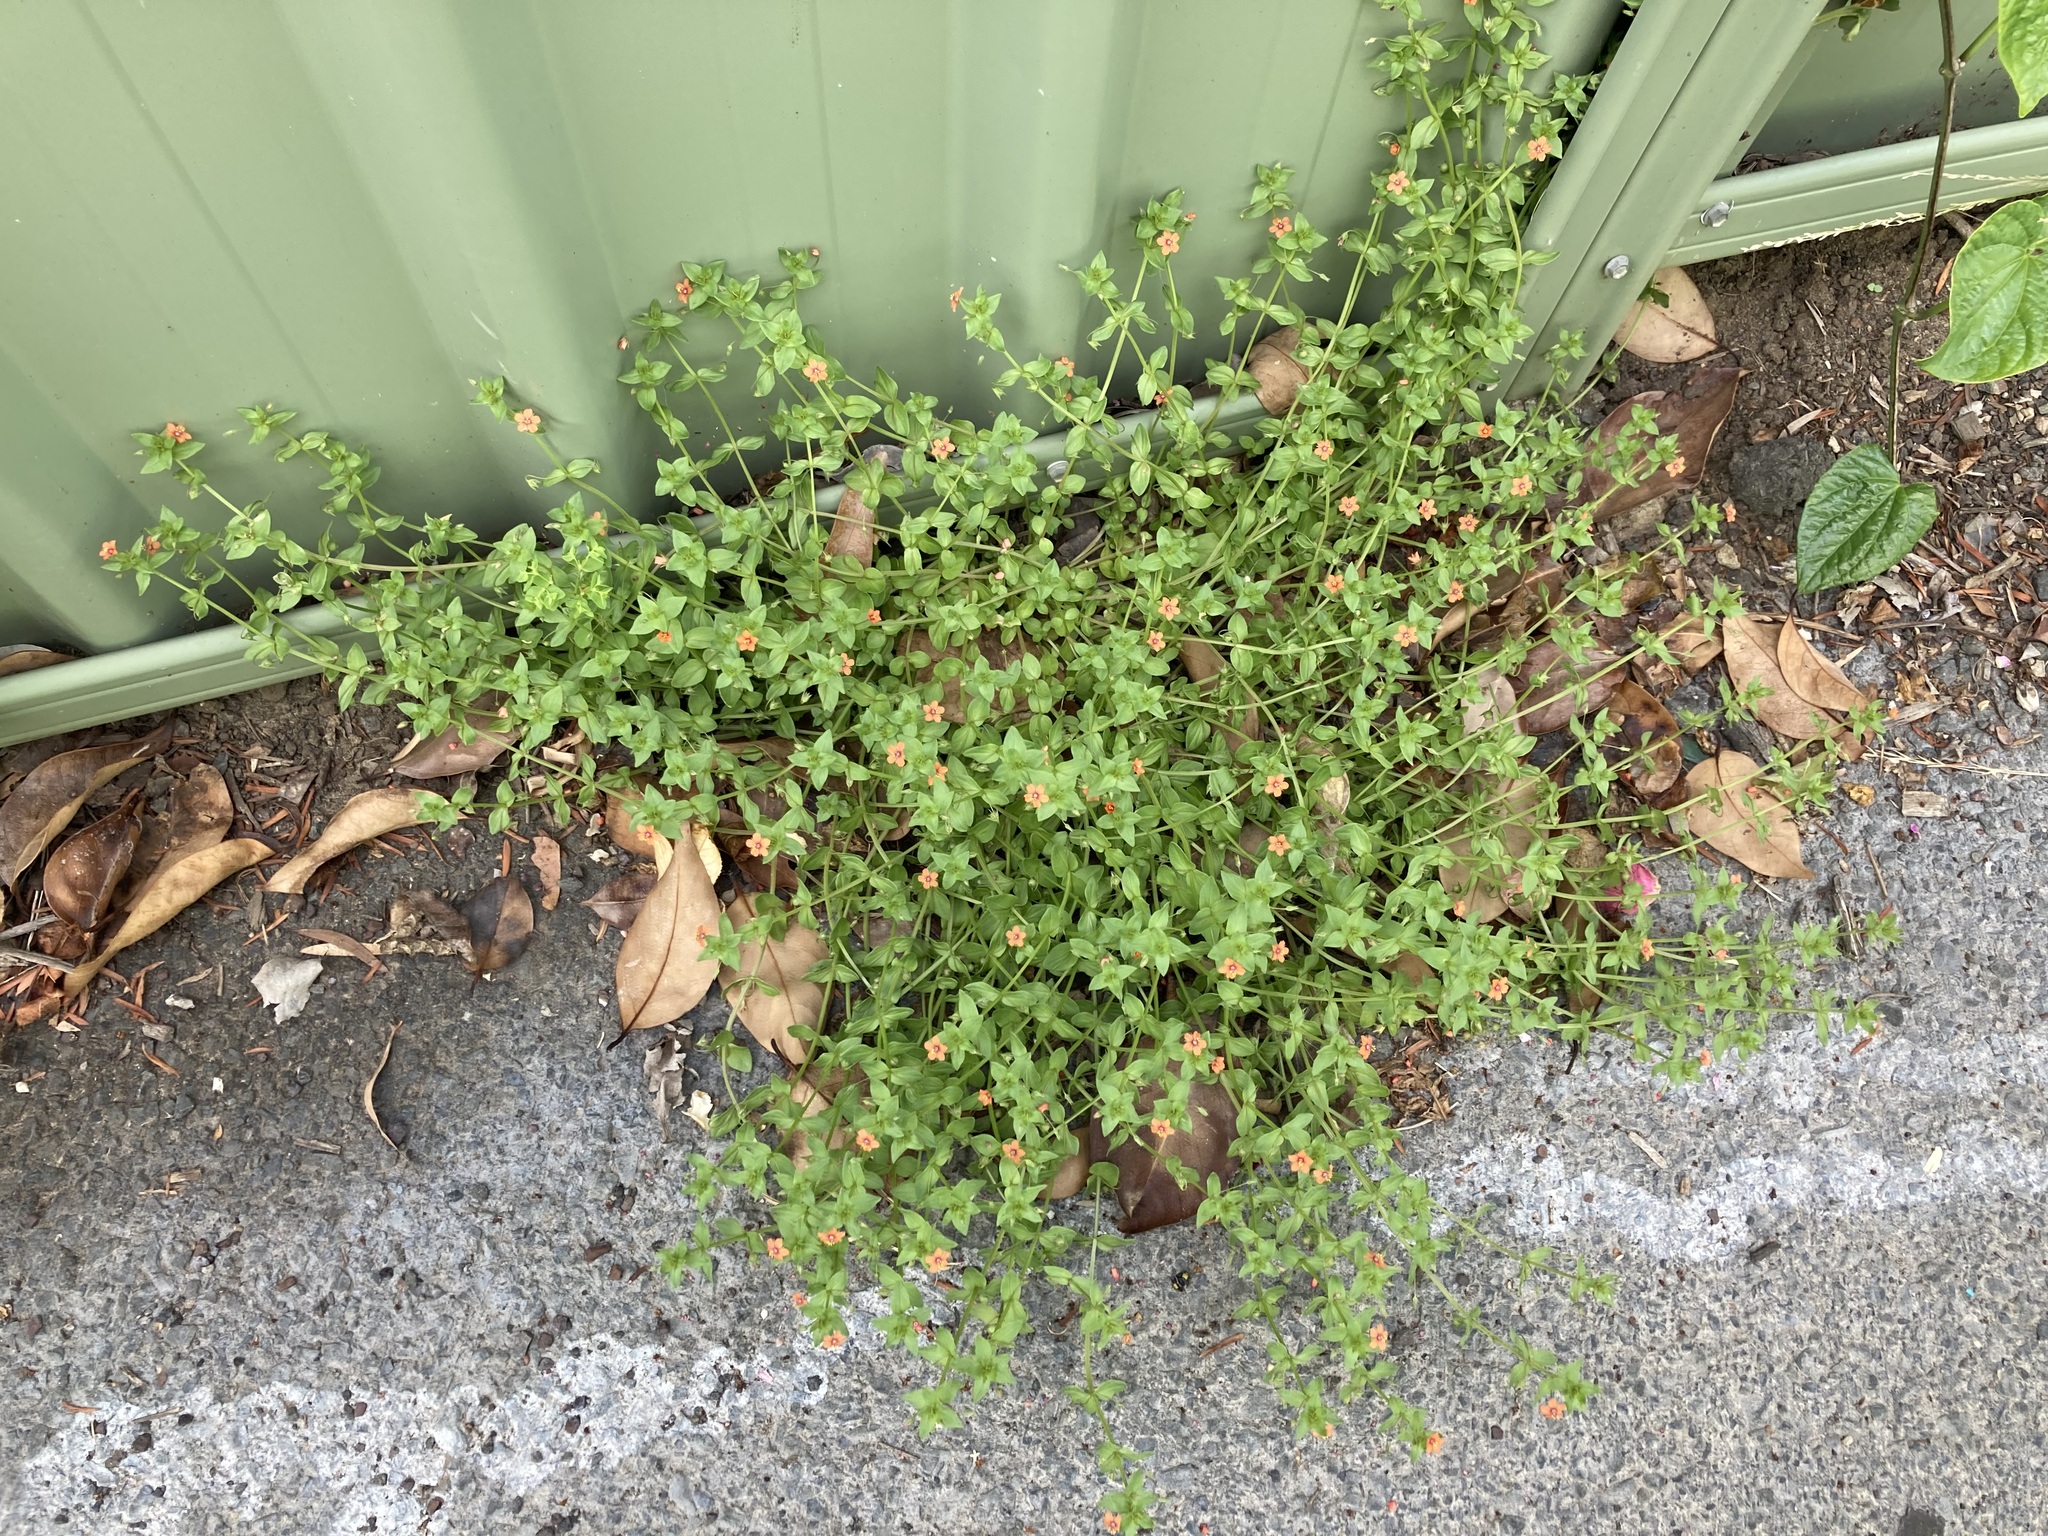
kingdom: Plantae
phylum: Tracheophyta
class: Magnoliopsida
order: Ericales
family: Primulaceae
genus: Lysimachia
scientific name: Lysimachia arvensis
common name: Scarlet pimpernel
